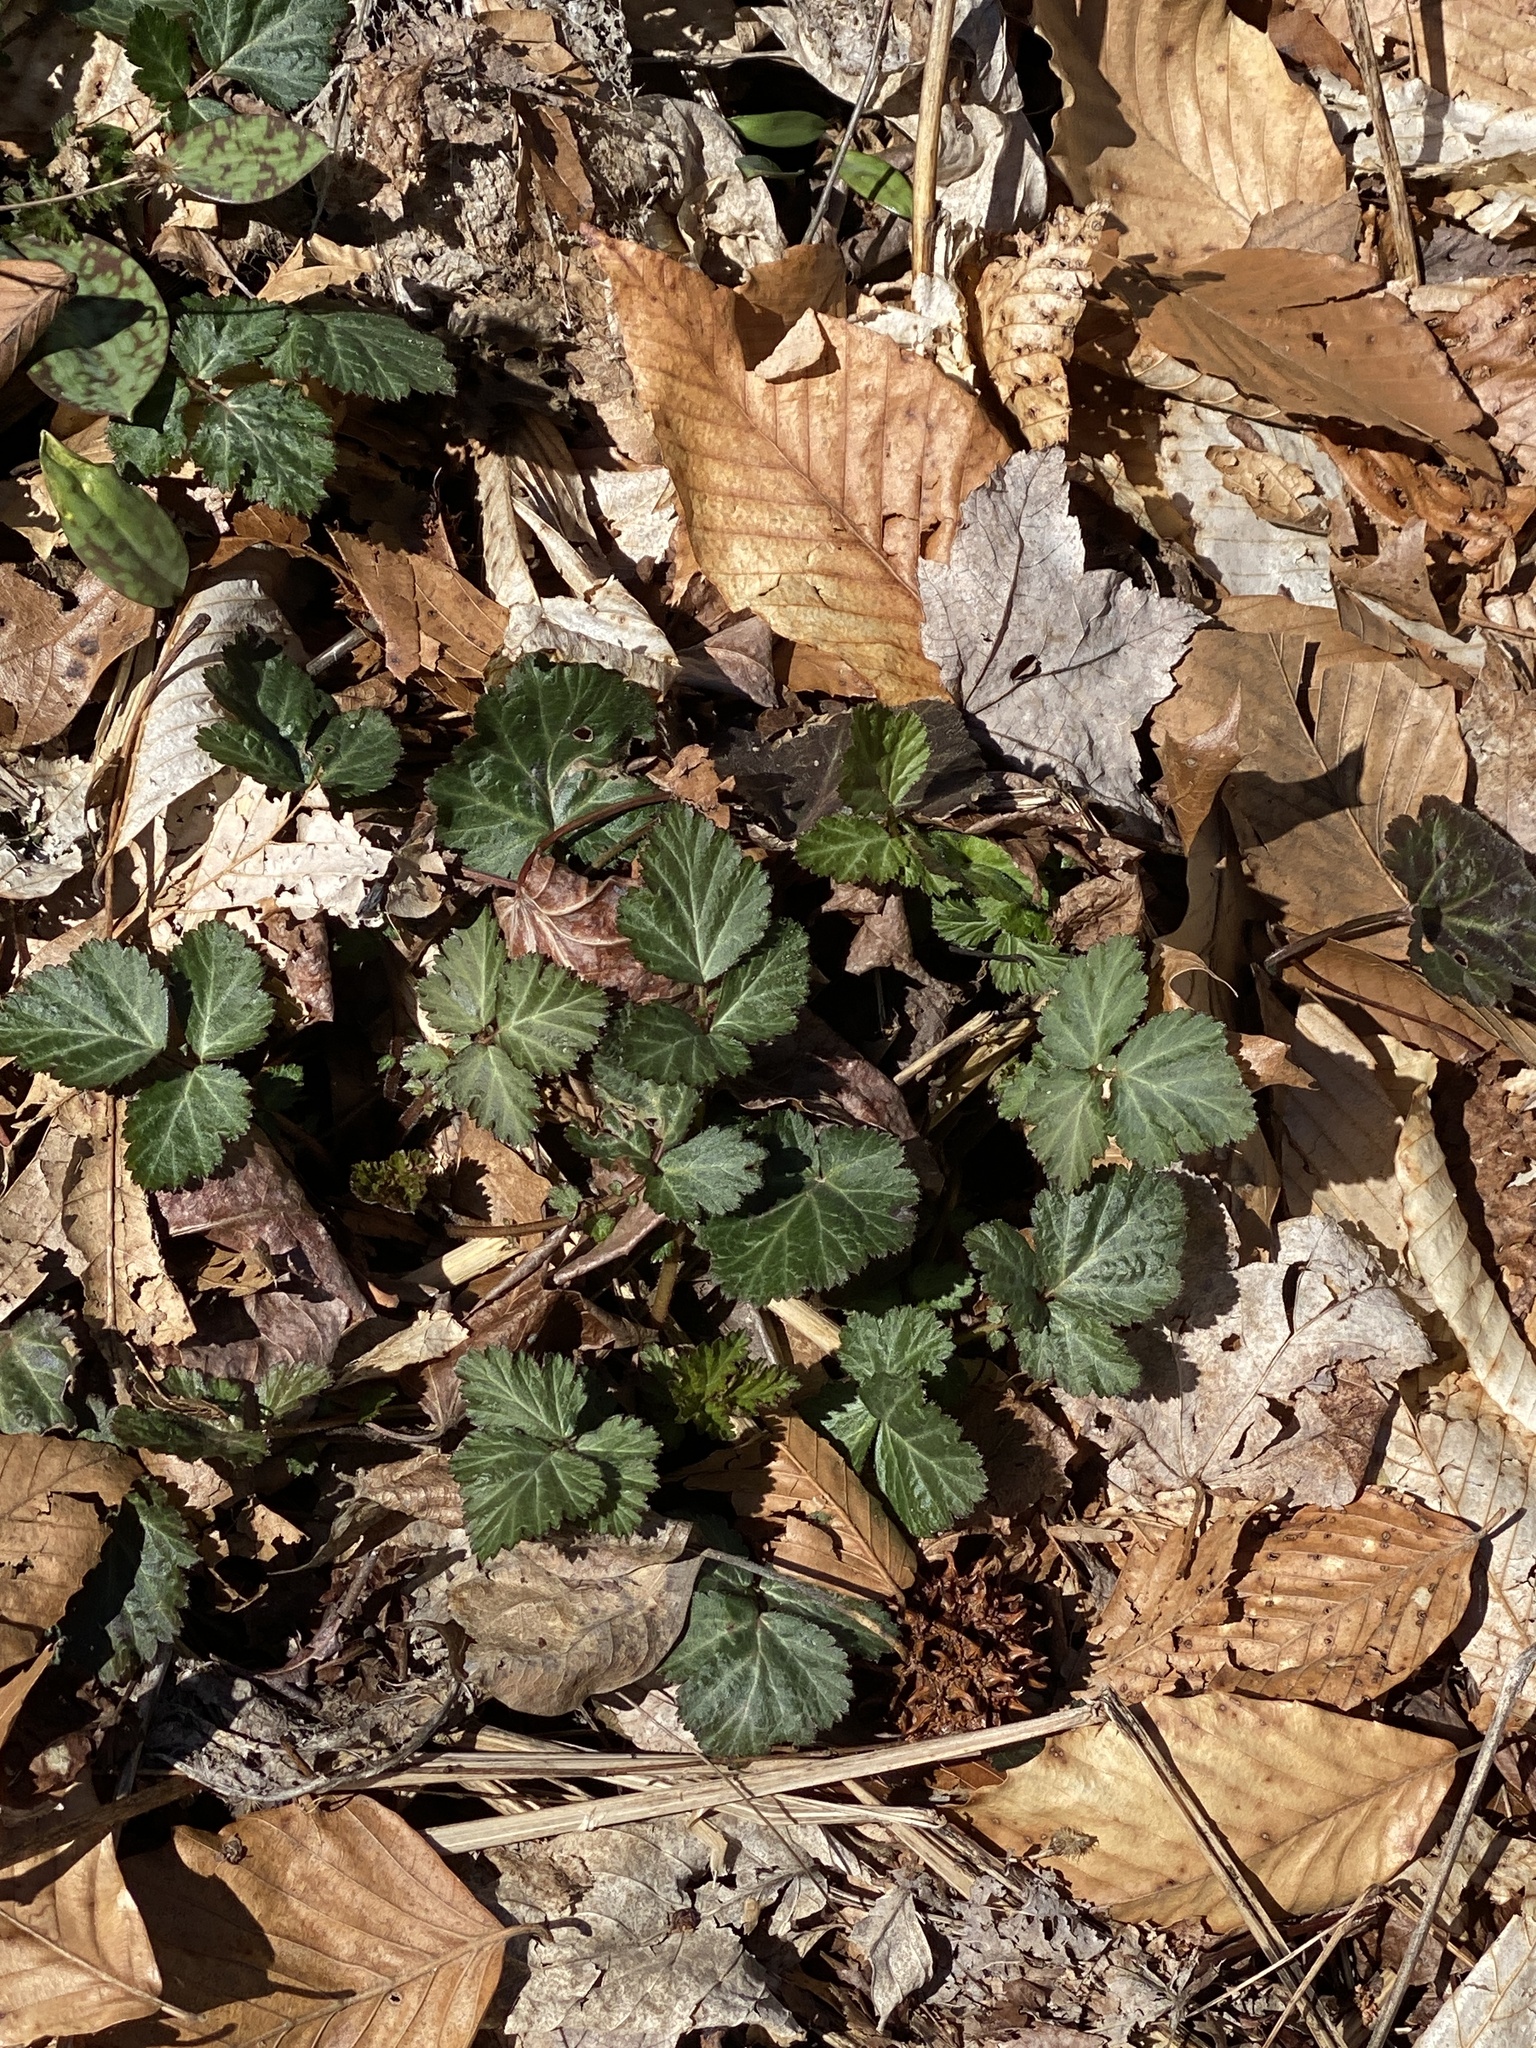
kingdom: Plantae
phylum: Tracheophyta
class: Magnoliopsida
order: Rosales
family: Rosaceae
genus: Geum
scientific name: Geum canadense
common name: White avens
